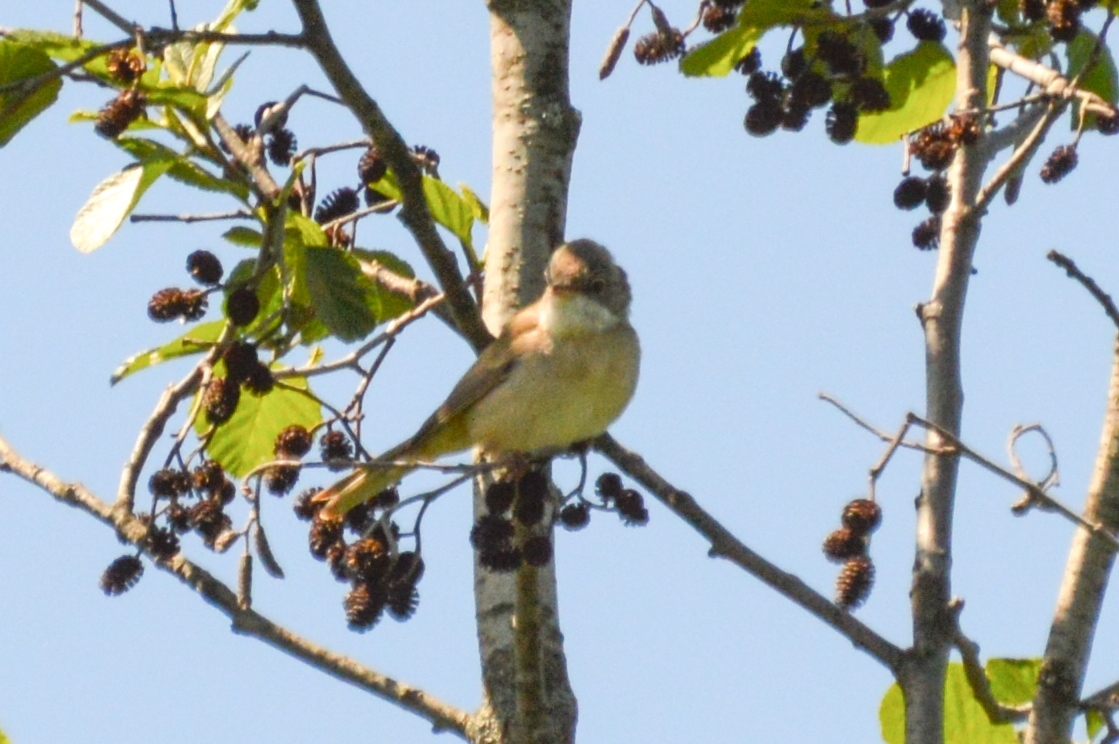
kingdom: Animalia
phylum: Chordata
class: Aves
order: Passeriformes
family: Sylviidae
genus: Sylvia
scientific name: Sylvia communis
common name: Common whitethroat
